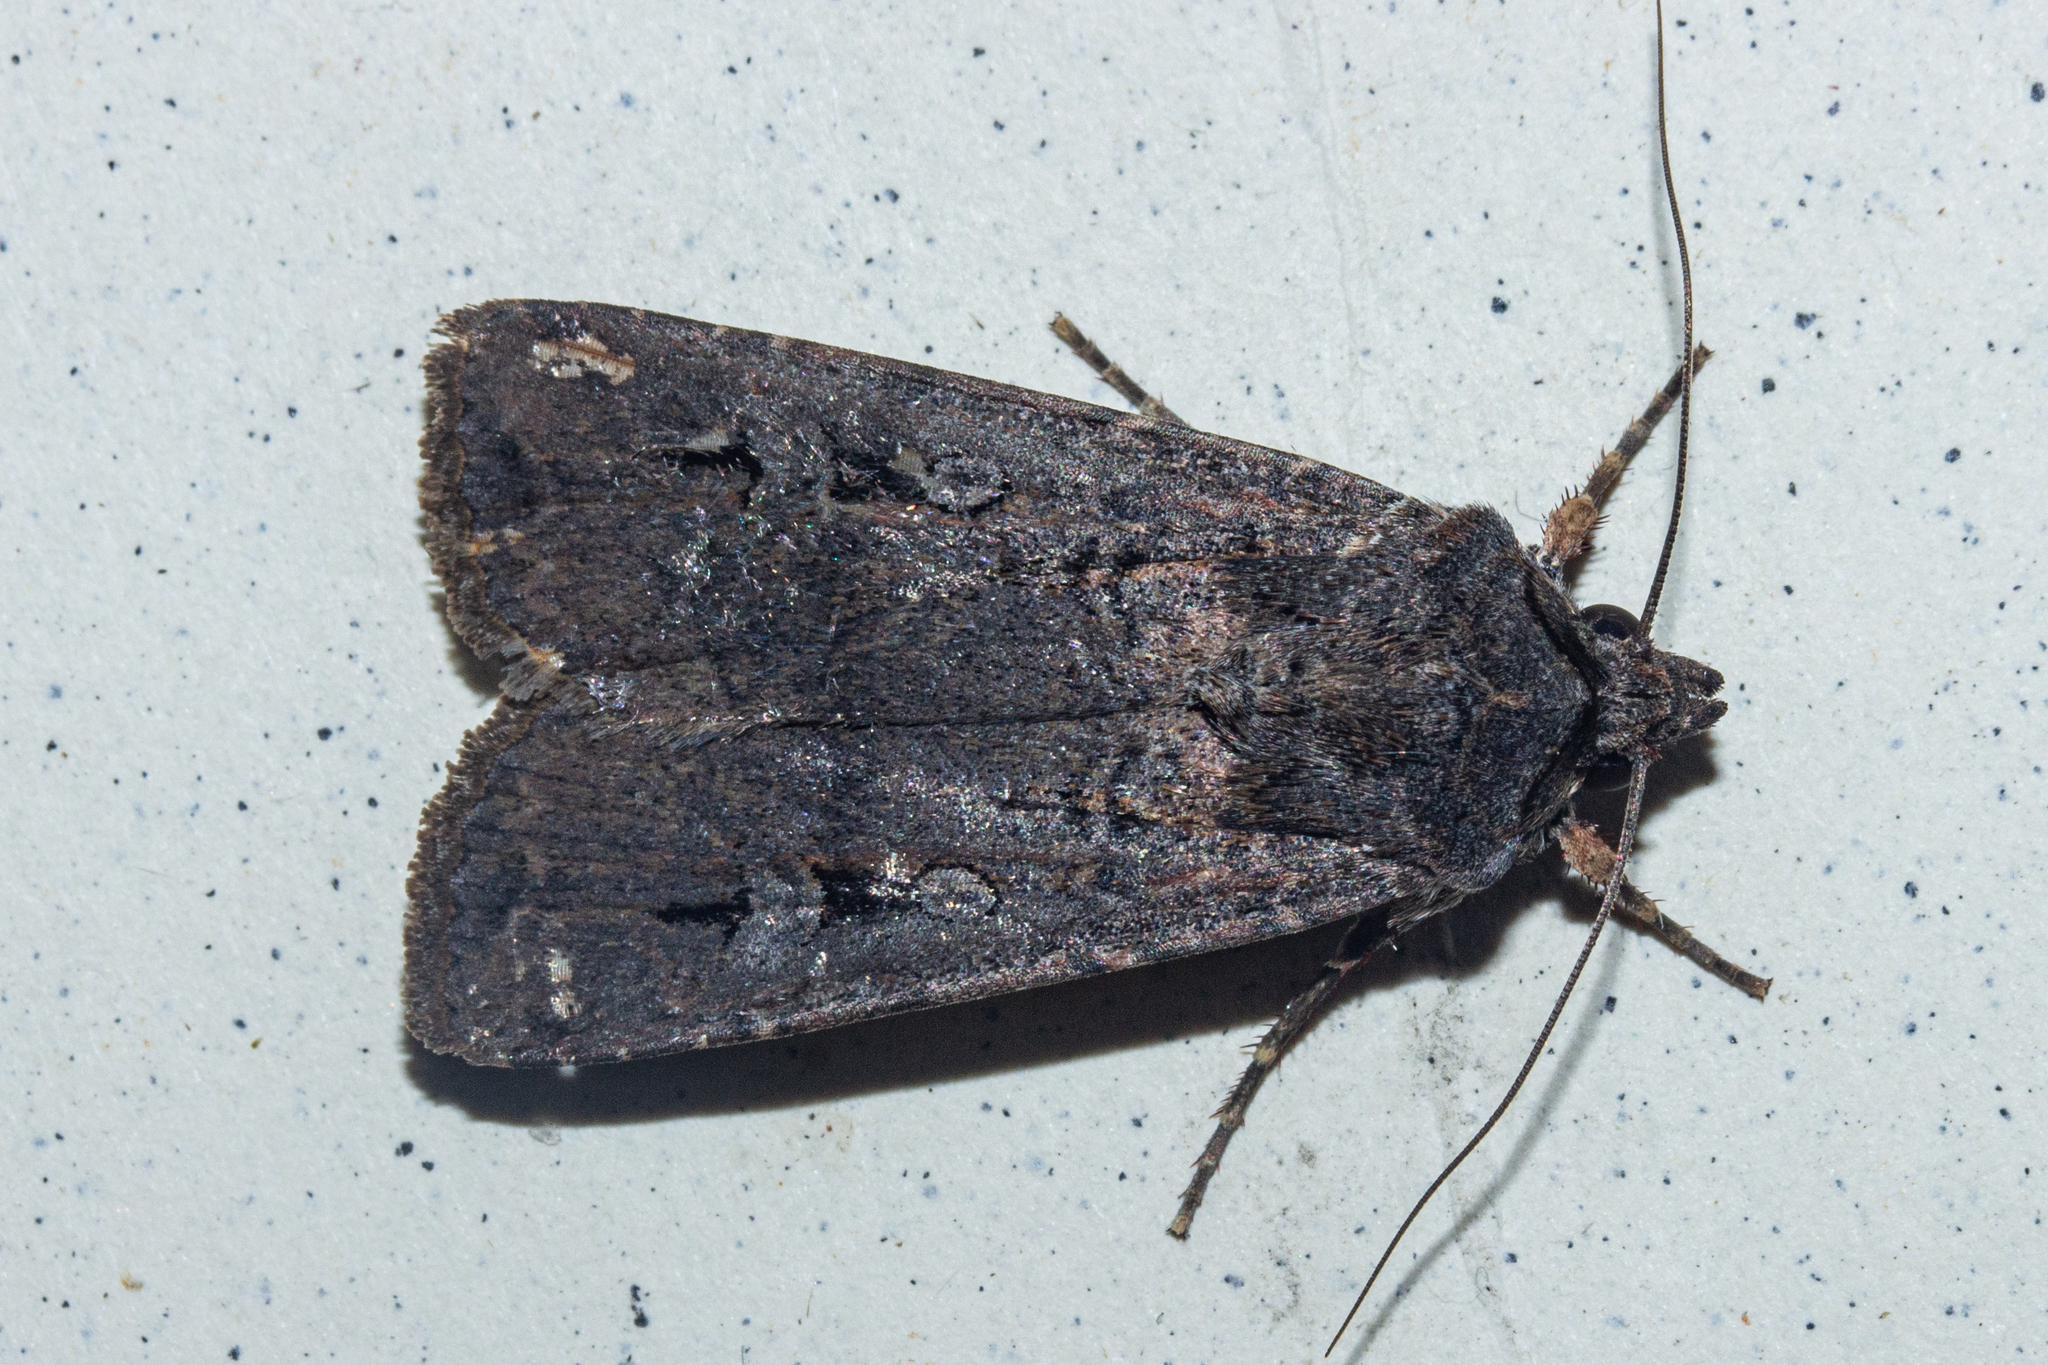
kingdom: Animalia
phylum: Arthropoda
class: Insecta
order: Lepidoptera
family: Noctuidae
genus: Agrotis
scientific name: Agrotis infusa
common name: Bogong moth
